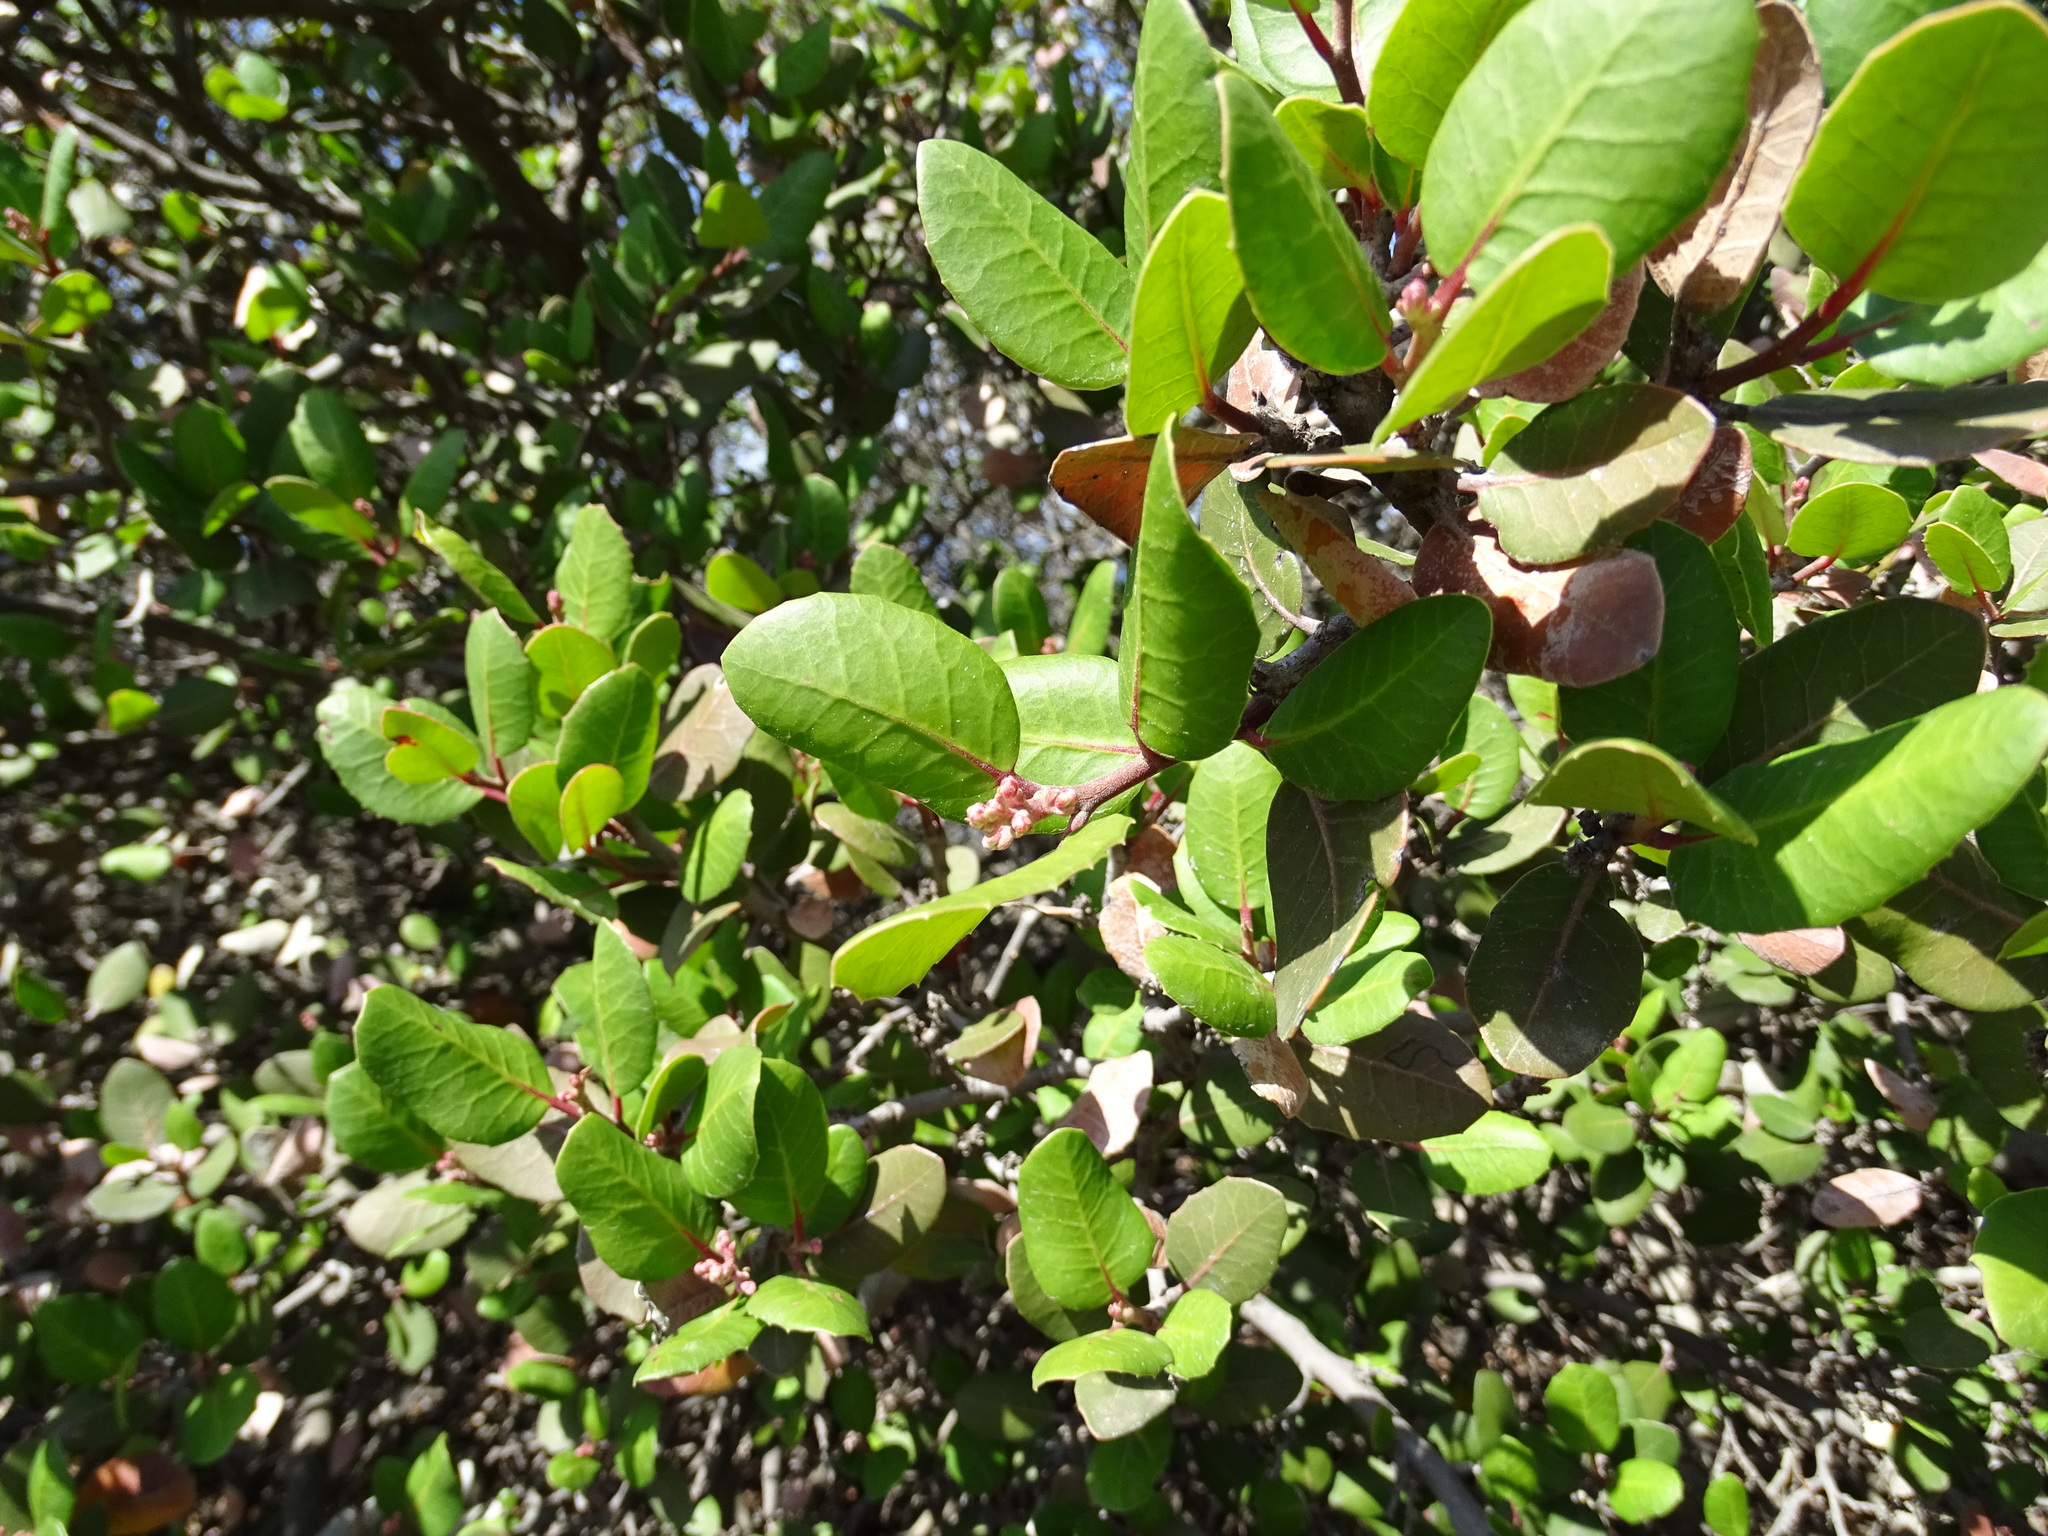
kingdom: Plantae
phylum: Tracheophyta
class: Magnoliopsida
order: Sapindales
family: Anacardiaceae
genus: Rhus
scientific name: Rhus integrifolia
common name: Lemonade sumac
